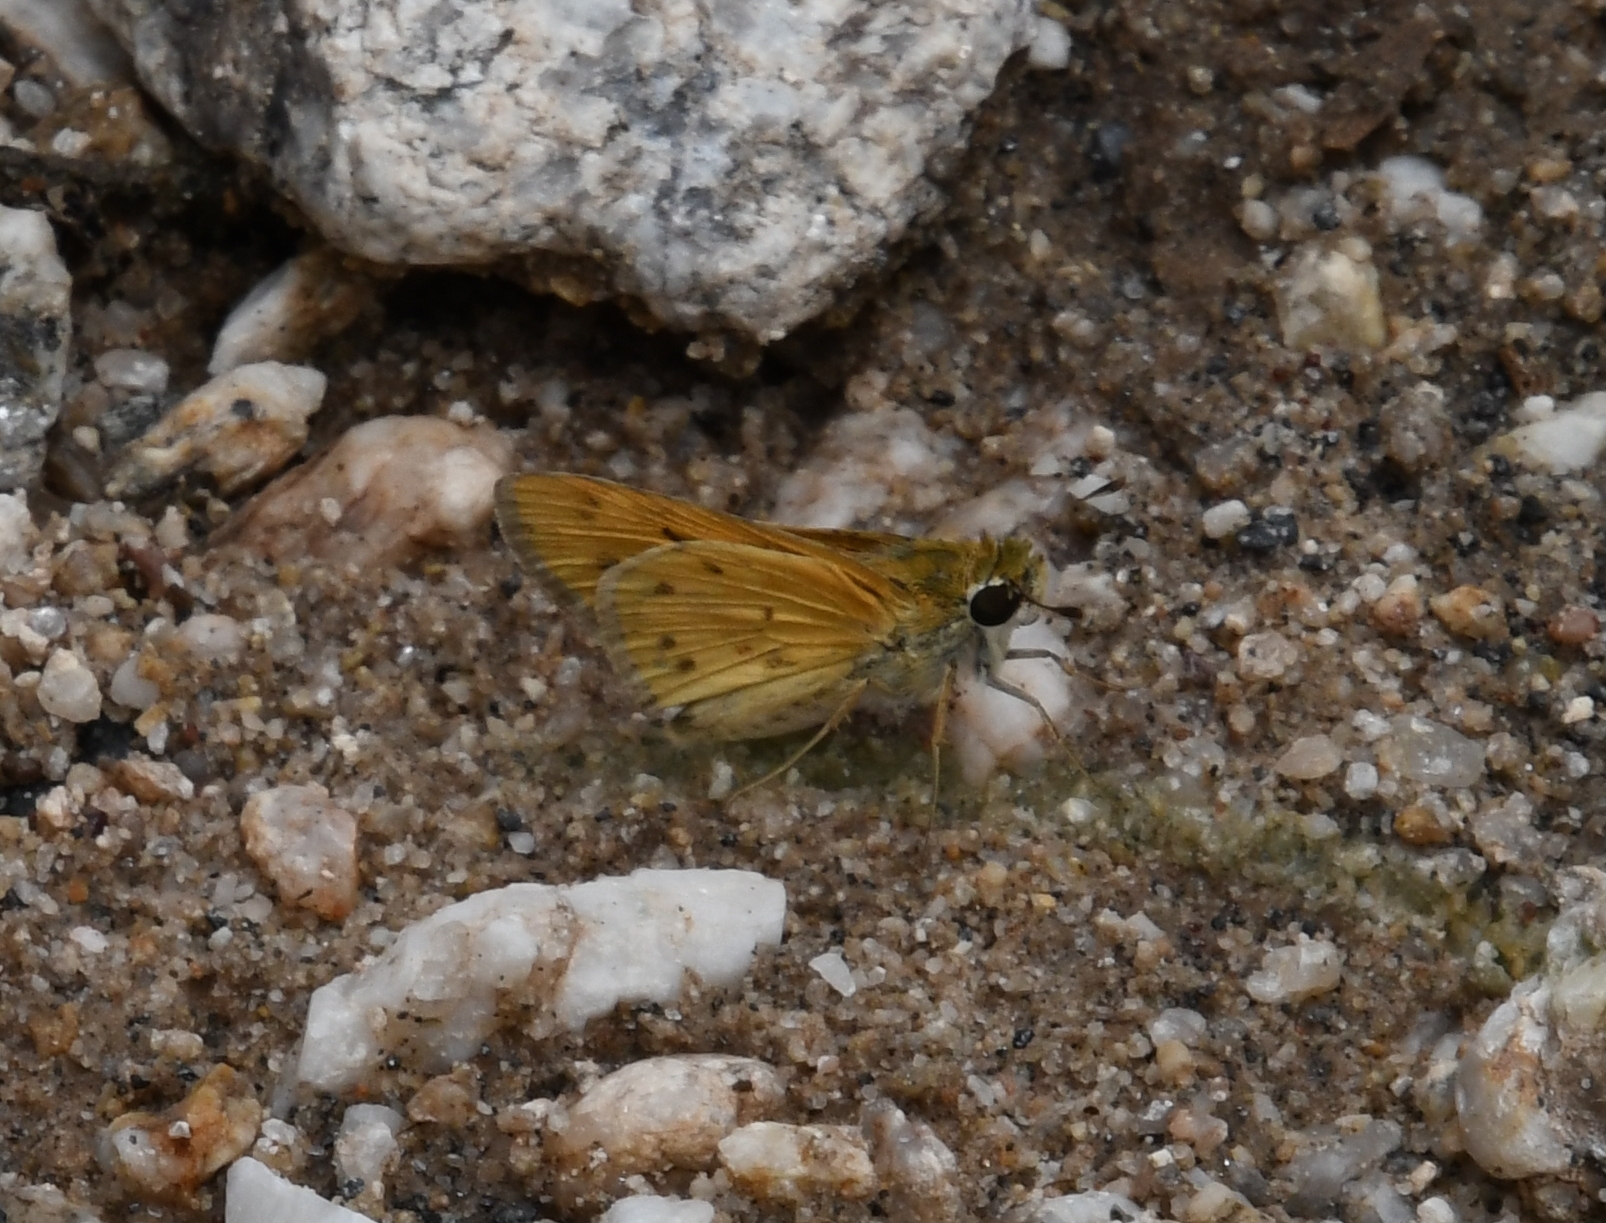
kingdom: Animalia
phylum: Arthropoda
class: Insecta
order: Lepidoptera
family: Hesperiidae
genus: Hylephila
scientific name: Hylephila phyleus
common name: Fiery skipper
